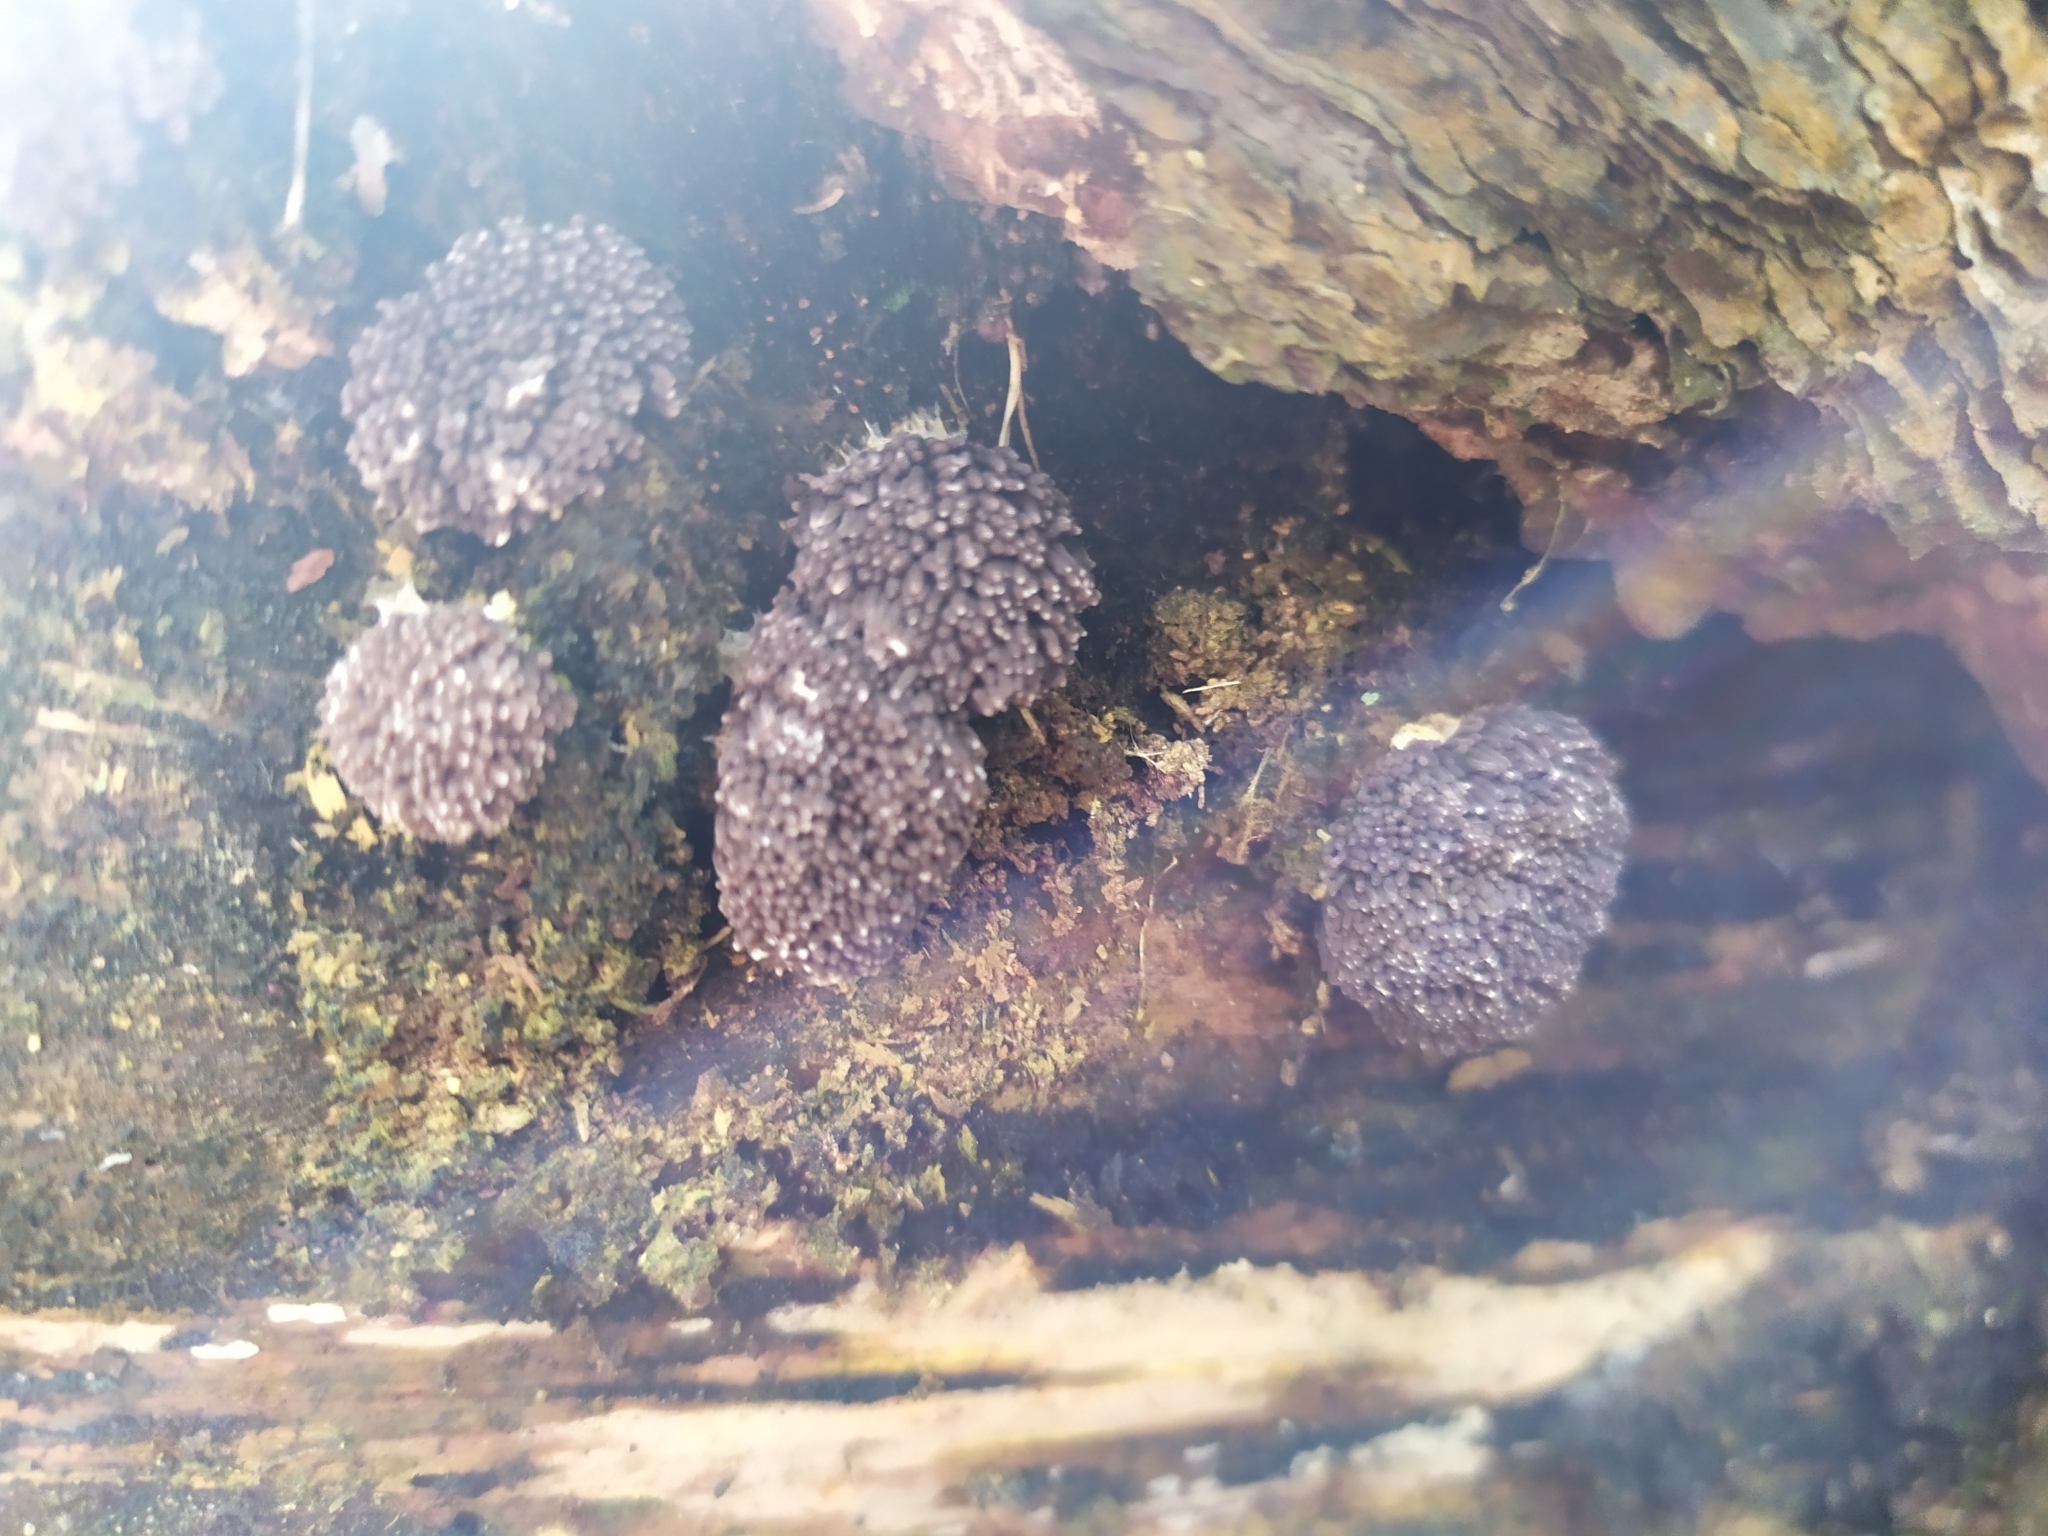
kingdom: Protozoa
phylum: Mycetozoa
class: Myxomycetes
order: Cribrariales
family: Tubiferaceae
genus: Tubifera
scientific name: Tubifera ferruginosa
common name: Red raspberry slime mold
